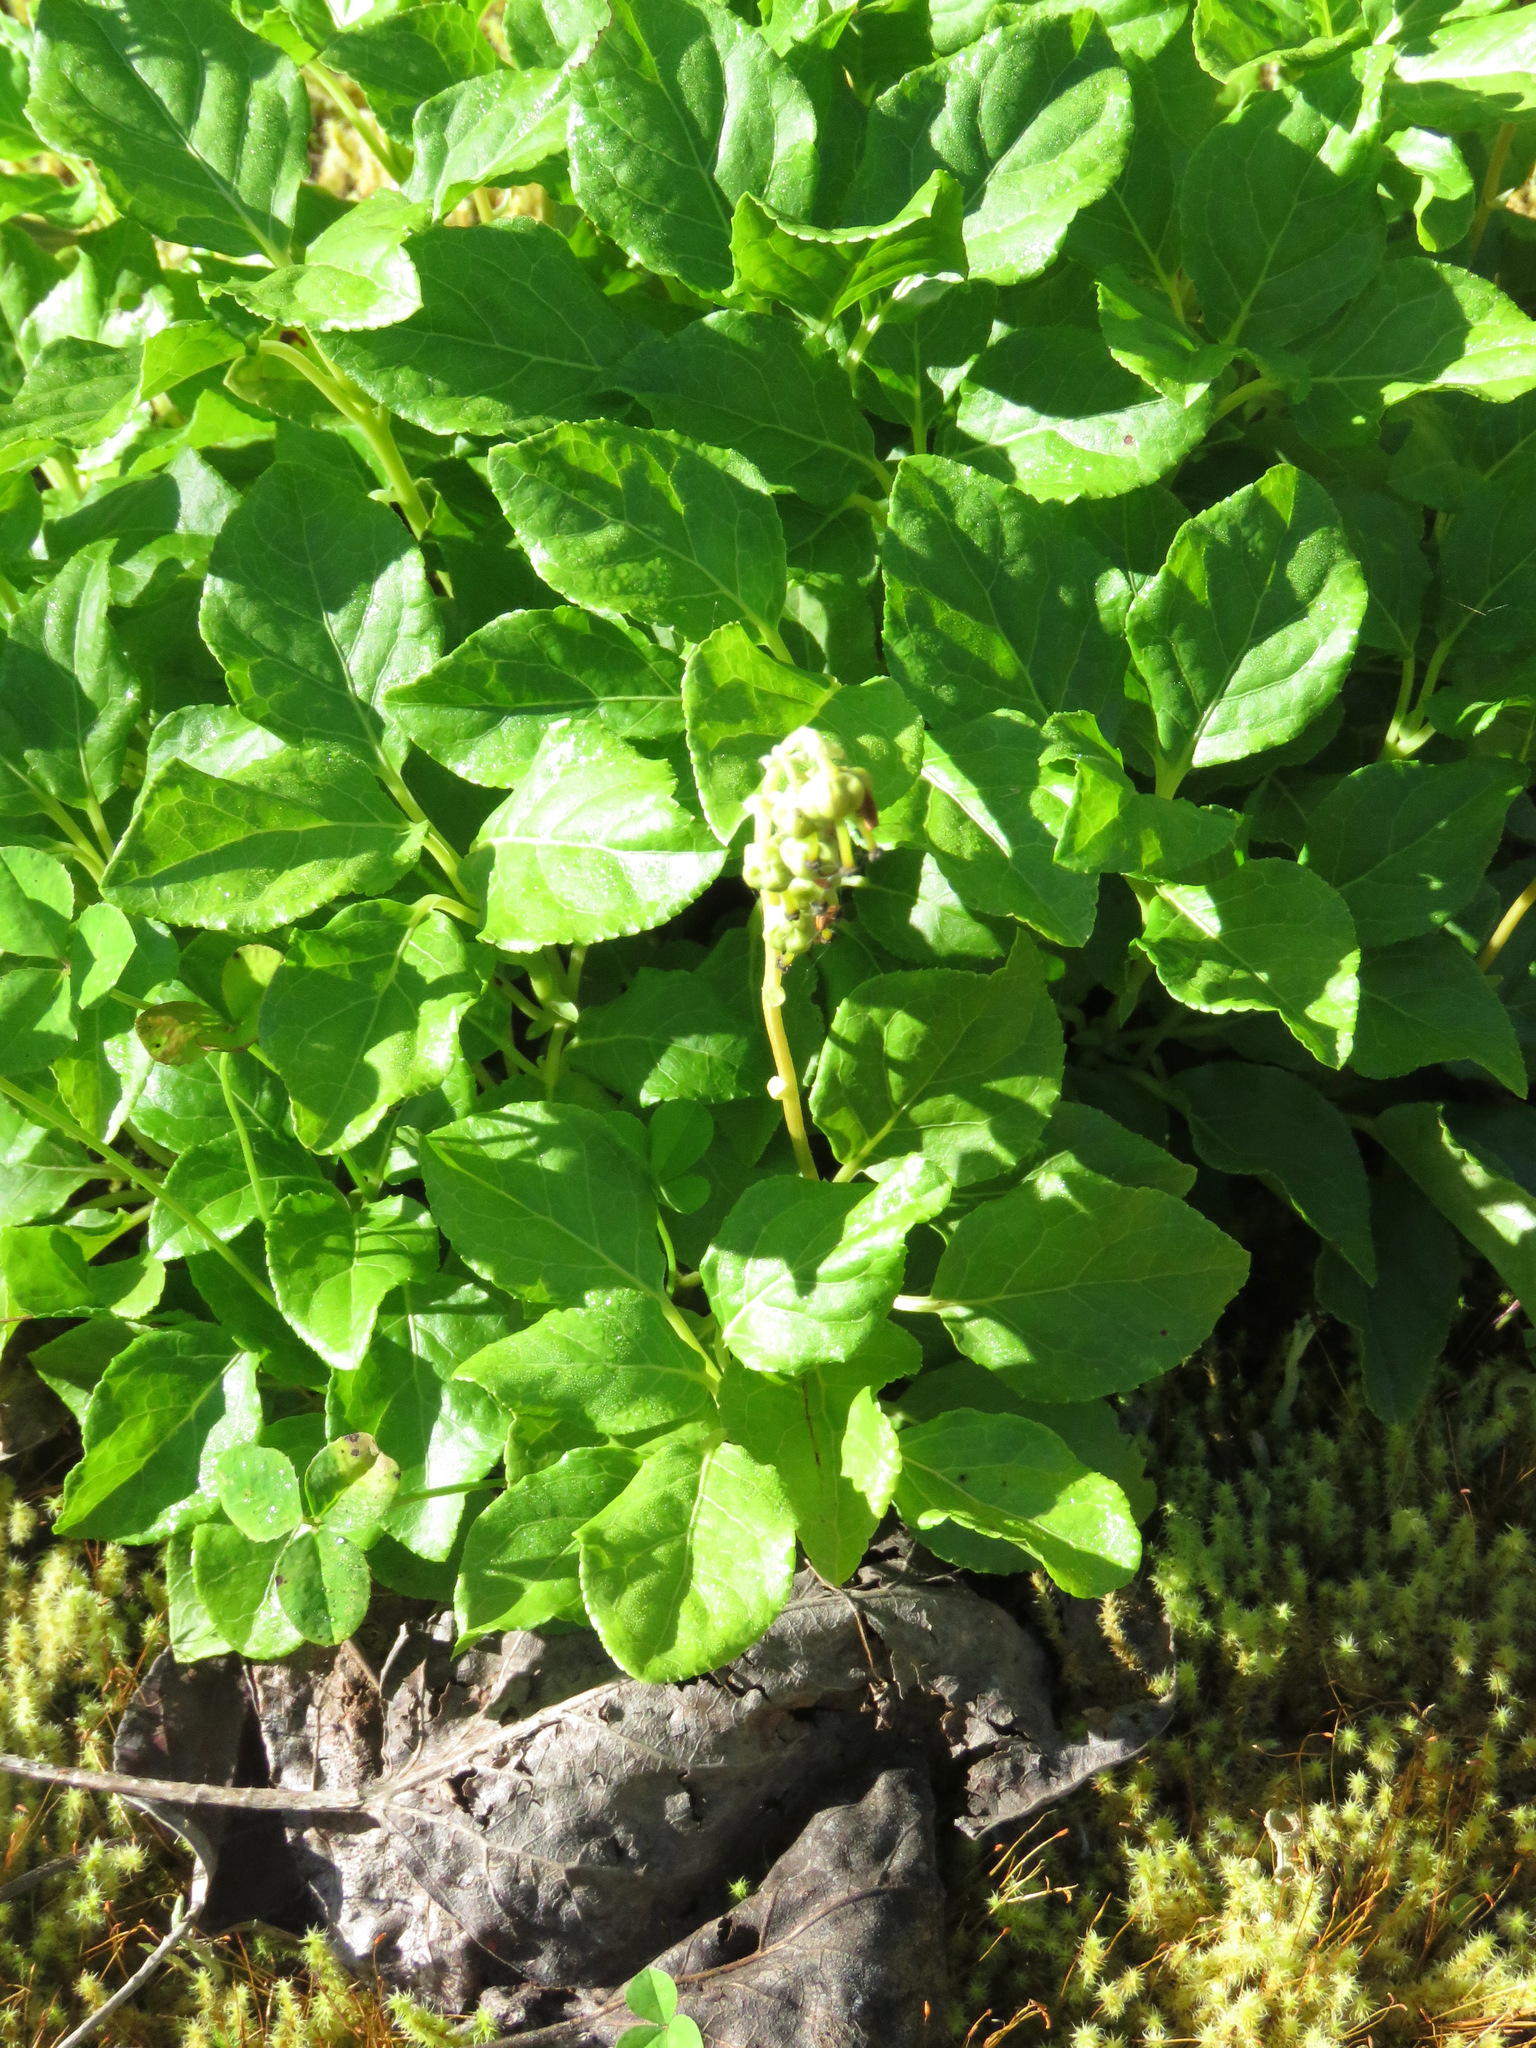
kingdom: Plantae
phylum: Tracheophyta
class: Magnoliopsida
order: Ericales
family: Ericaceae
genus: Orthilia
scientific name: Orthilia secunda
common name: One-sided orthilia
